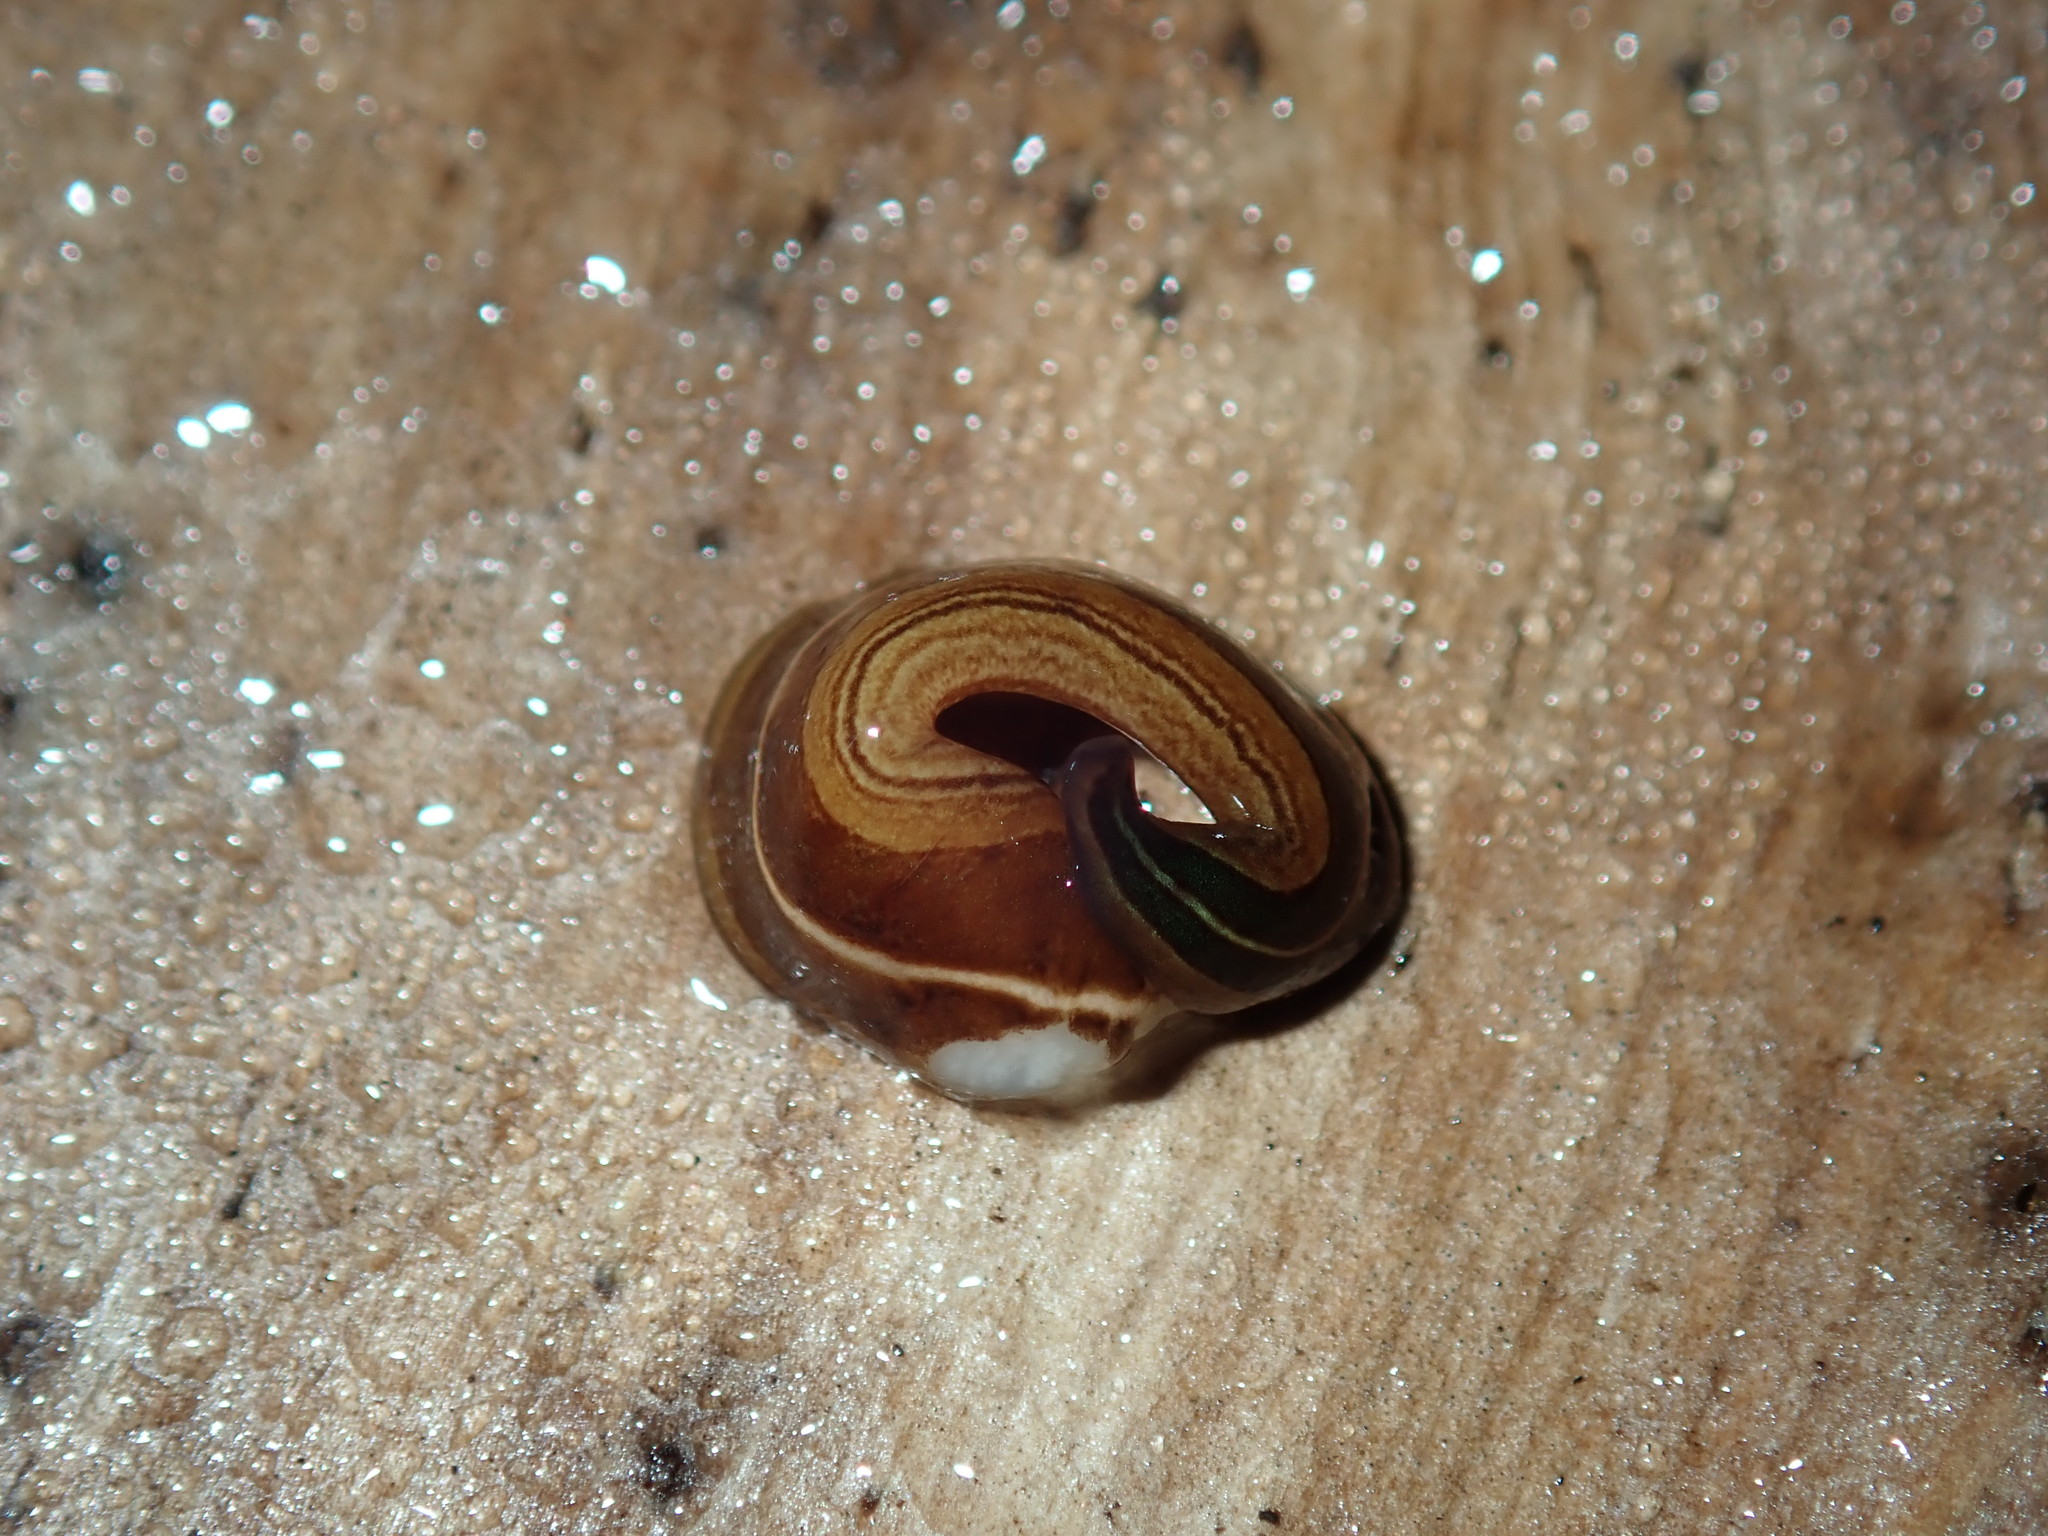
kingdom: Animalia
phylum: Platyhelminthes
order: Tricladida
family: Geoplanidae
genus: Australopacifica
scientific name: Australopacifica scaphoidea
